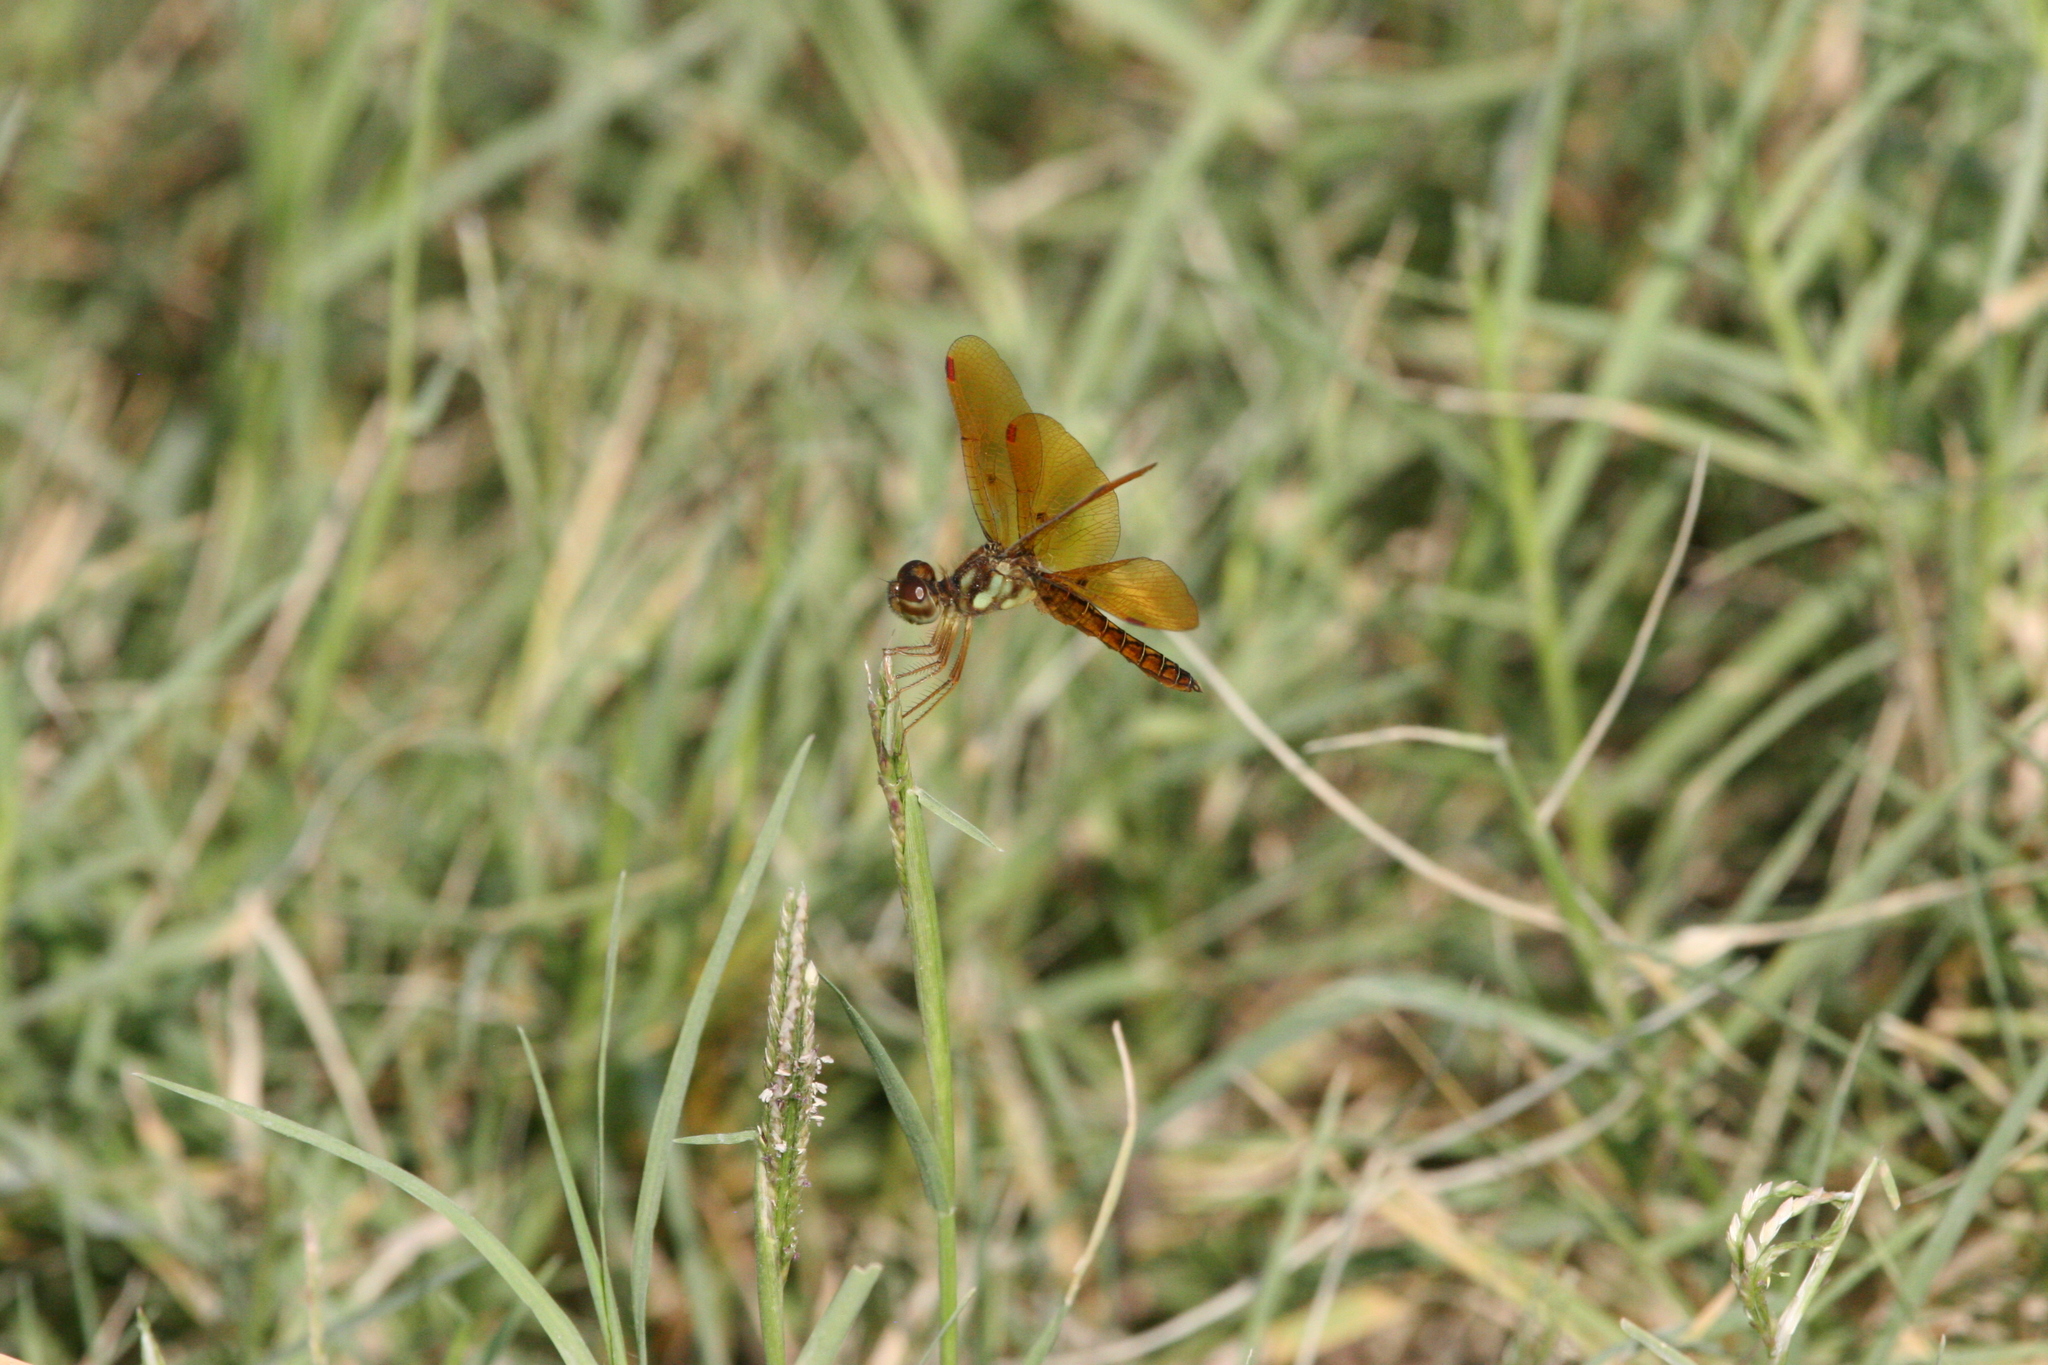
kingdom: Animalia
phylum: Arthropoda
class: Insecta
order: Odonata
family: Libellulidae
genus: Perithemis
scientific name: Perithemis tenera
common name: Eastern amberwing
